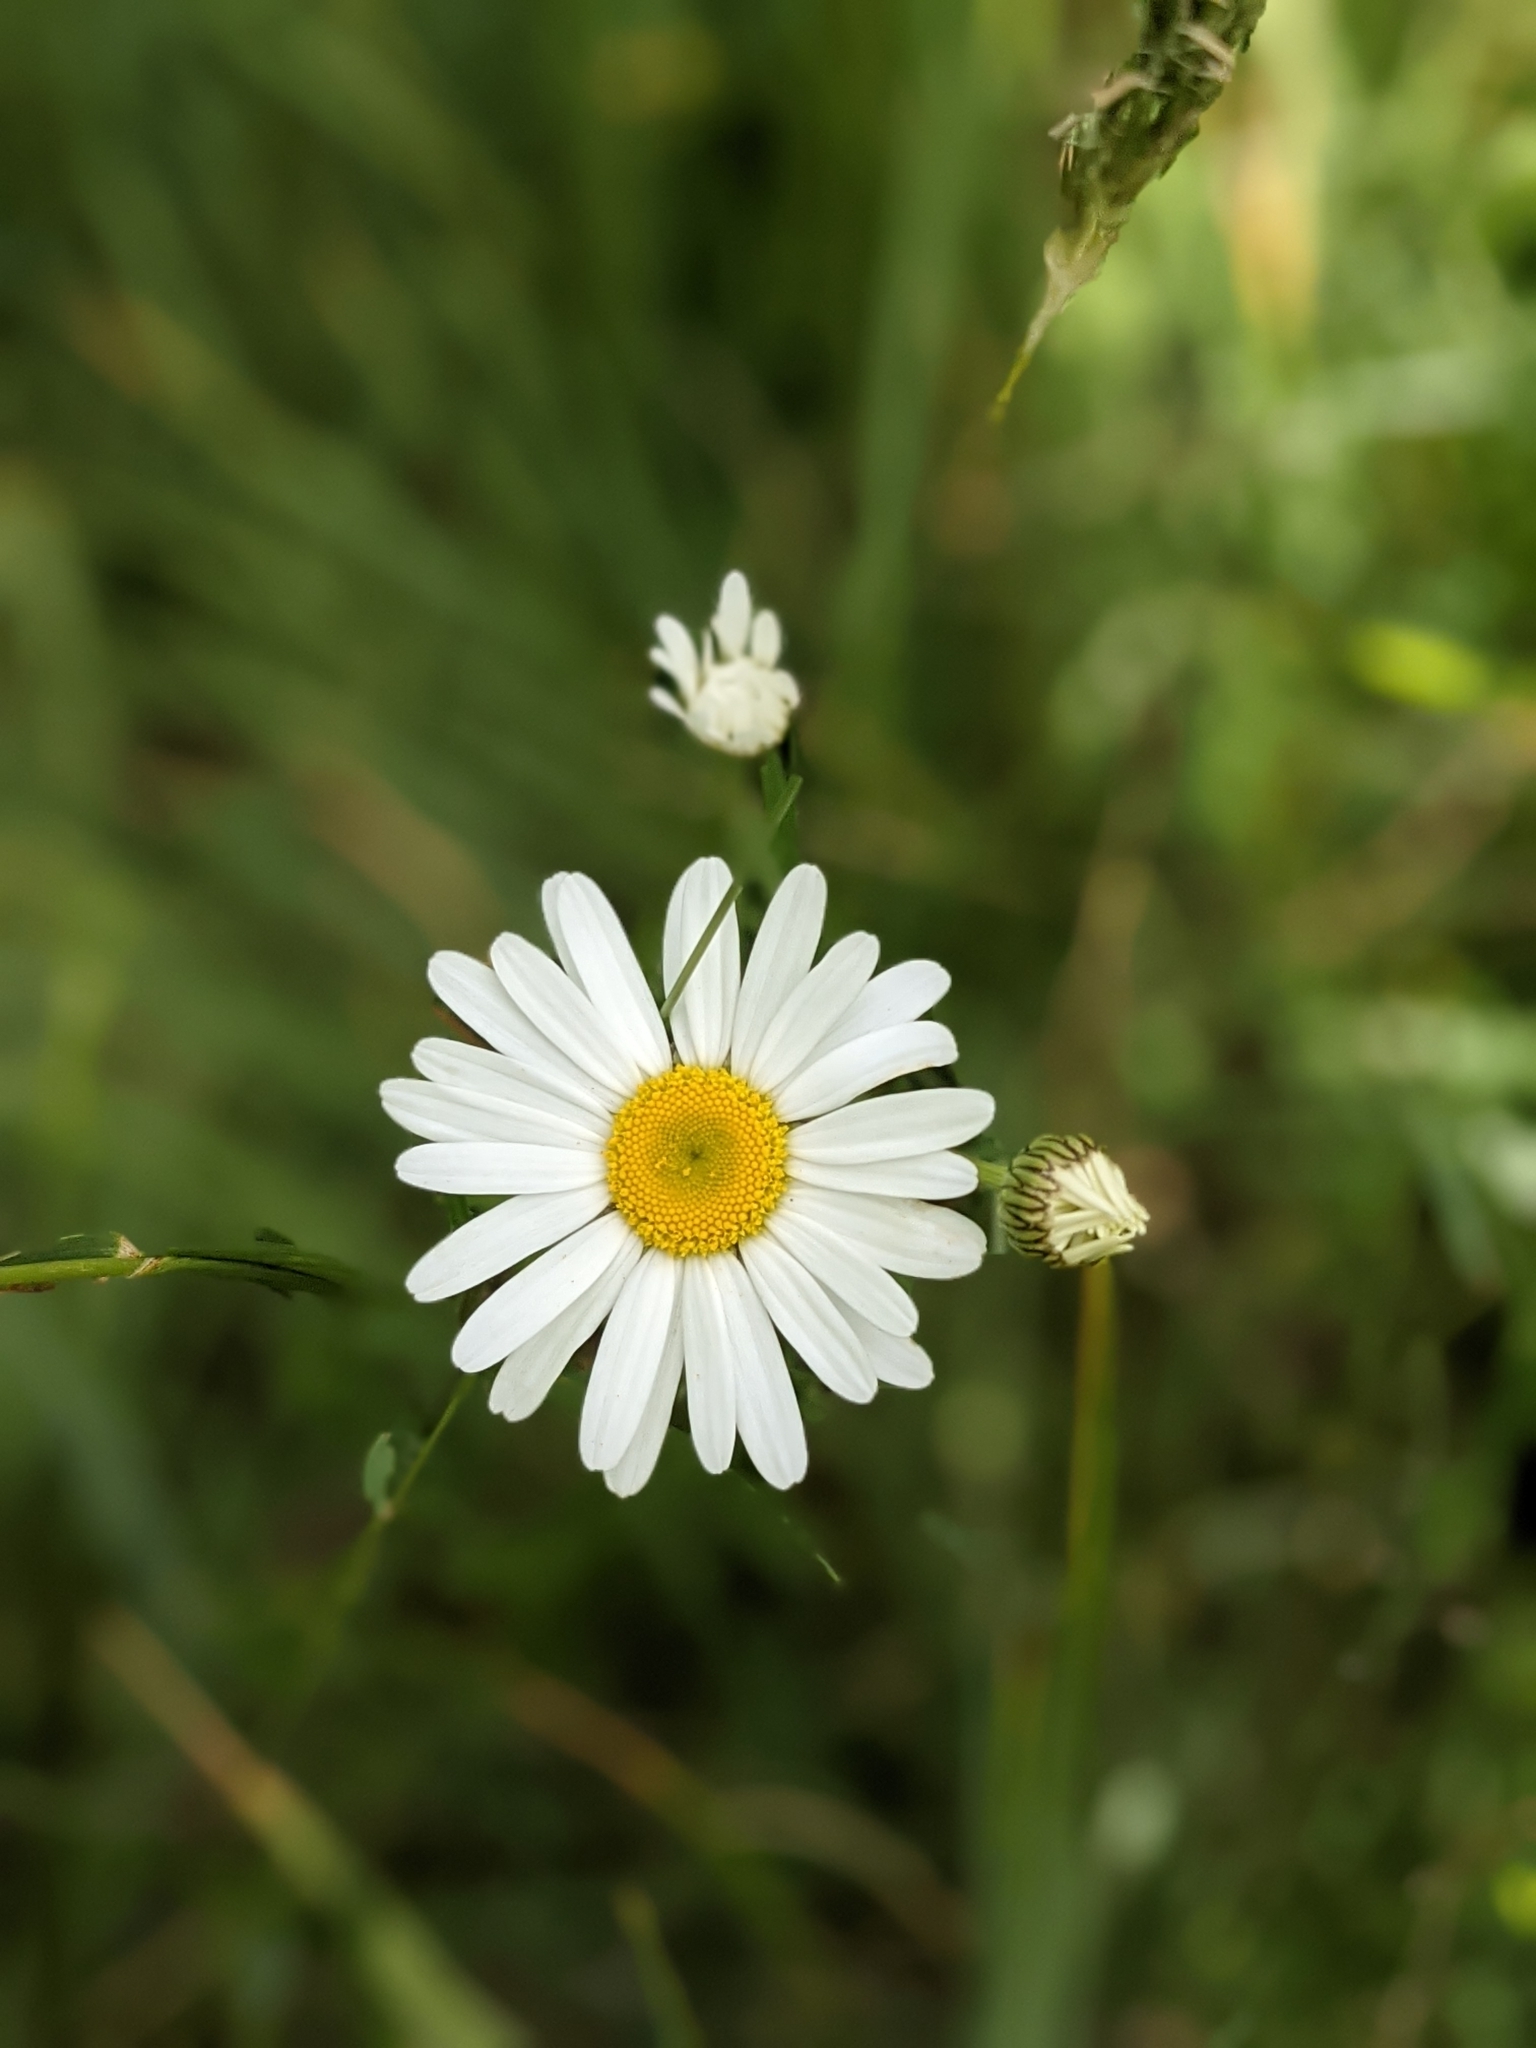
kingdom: Plantae
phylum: Tracheophyta
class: Magnoliopsida
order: Asterales
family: Asteraceae
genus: Leucanthemum
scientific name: Leucanthemum vulgare
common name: Oxeye daisy
